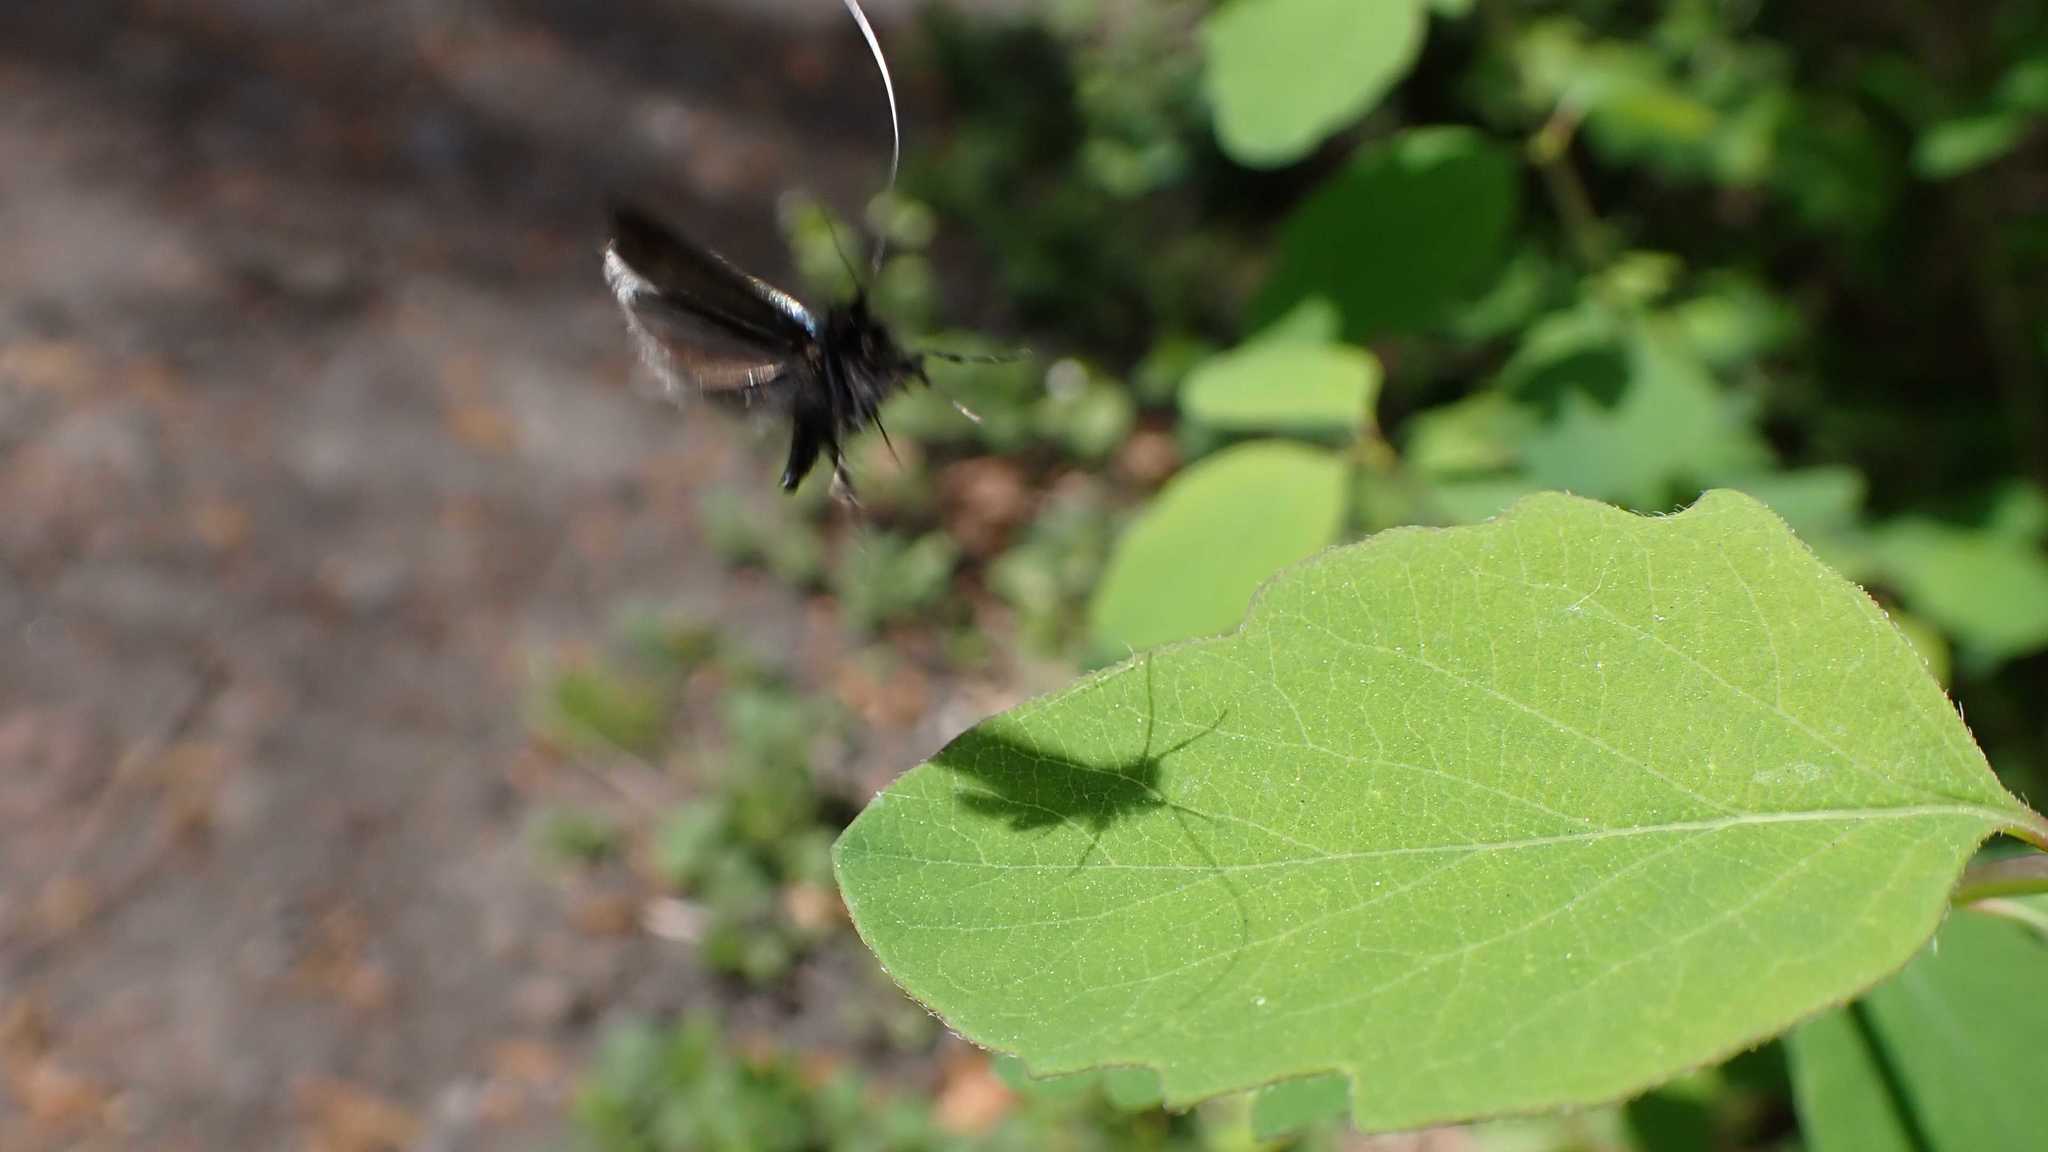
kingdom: Animalia
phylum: Arthropoda
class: Insecta
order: Lepidoptera
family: Adelidae
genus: Adela
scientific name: Adela viridella
